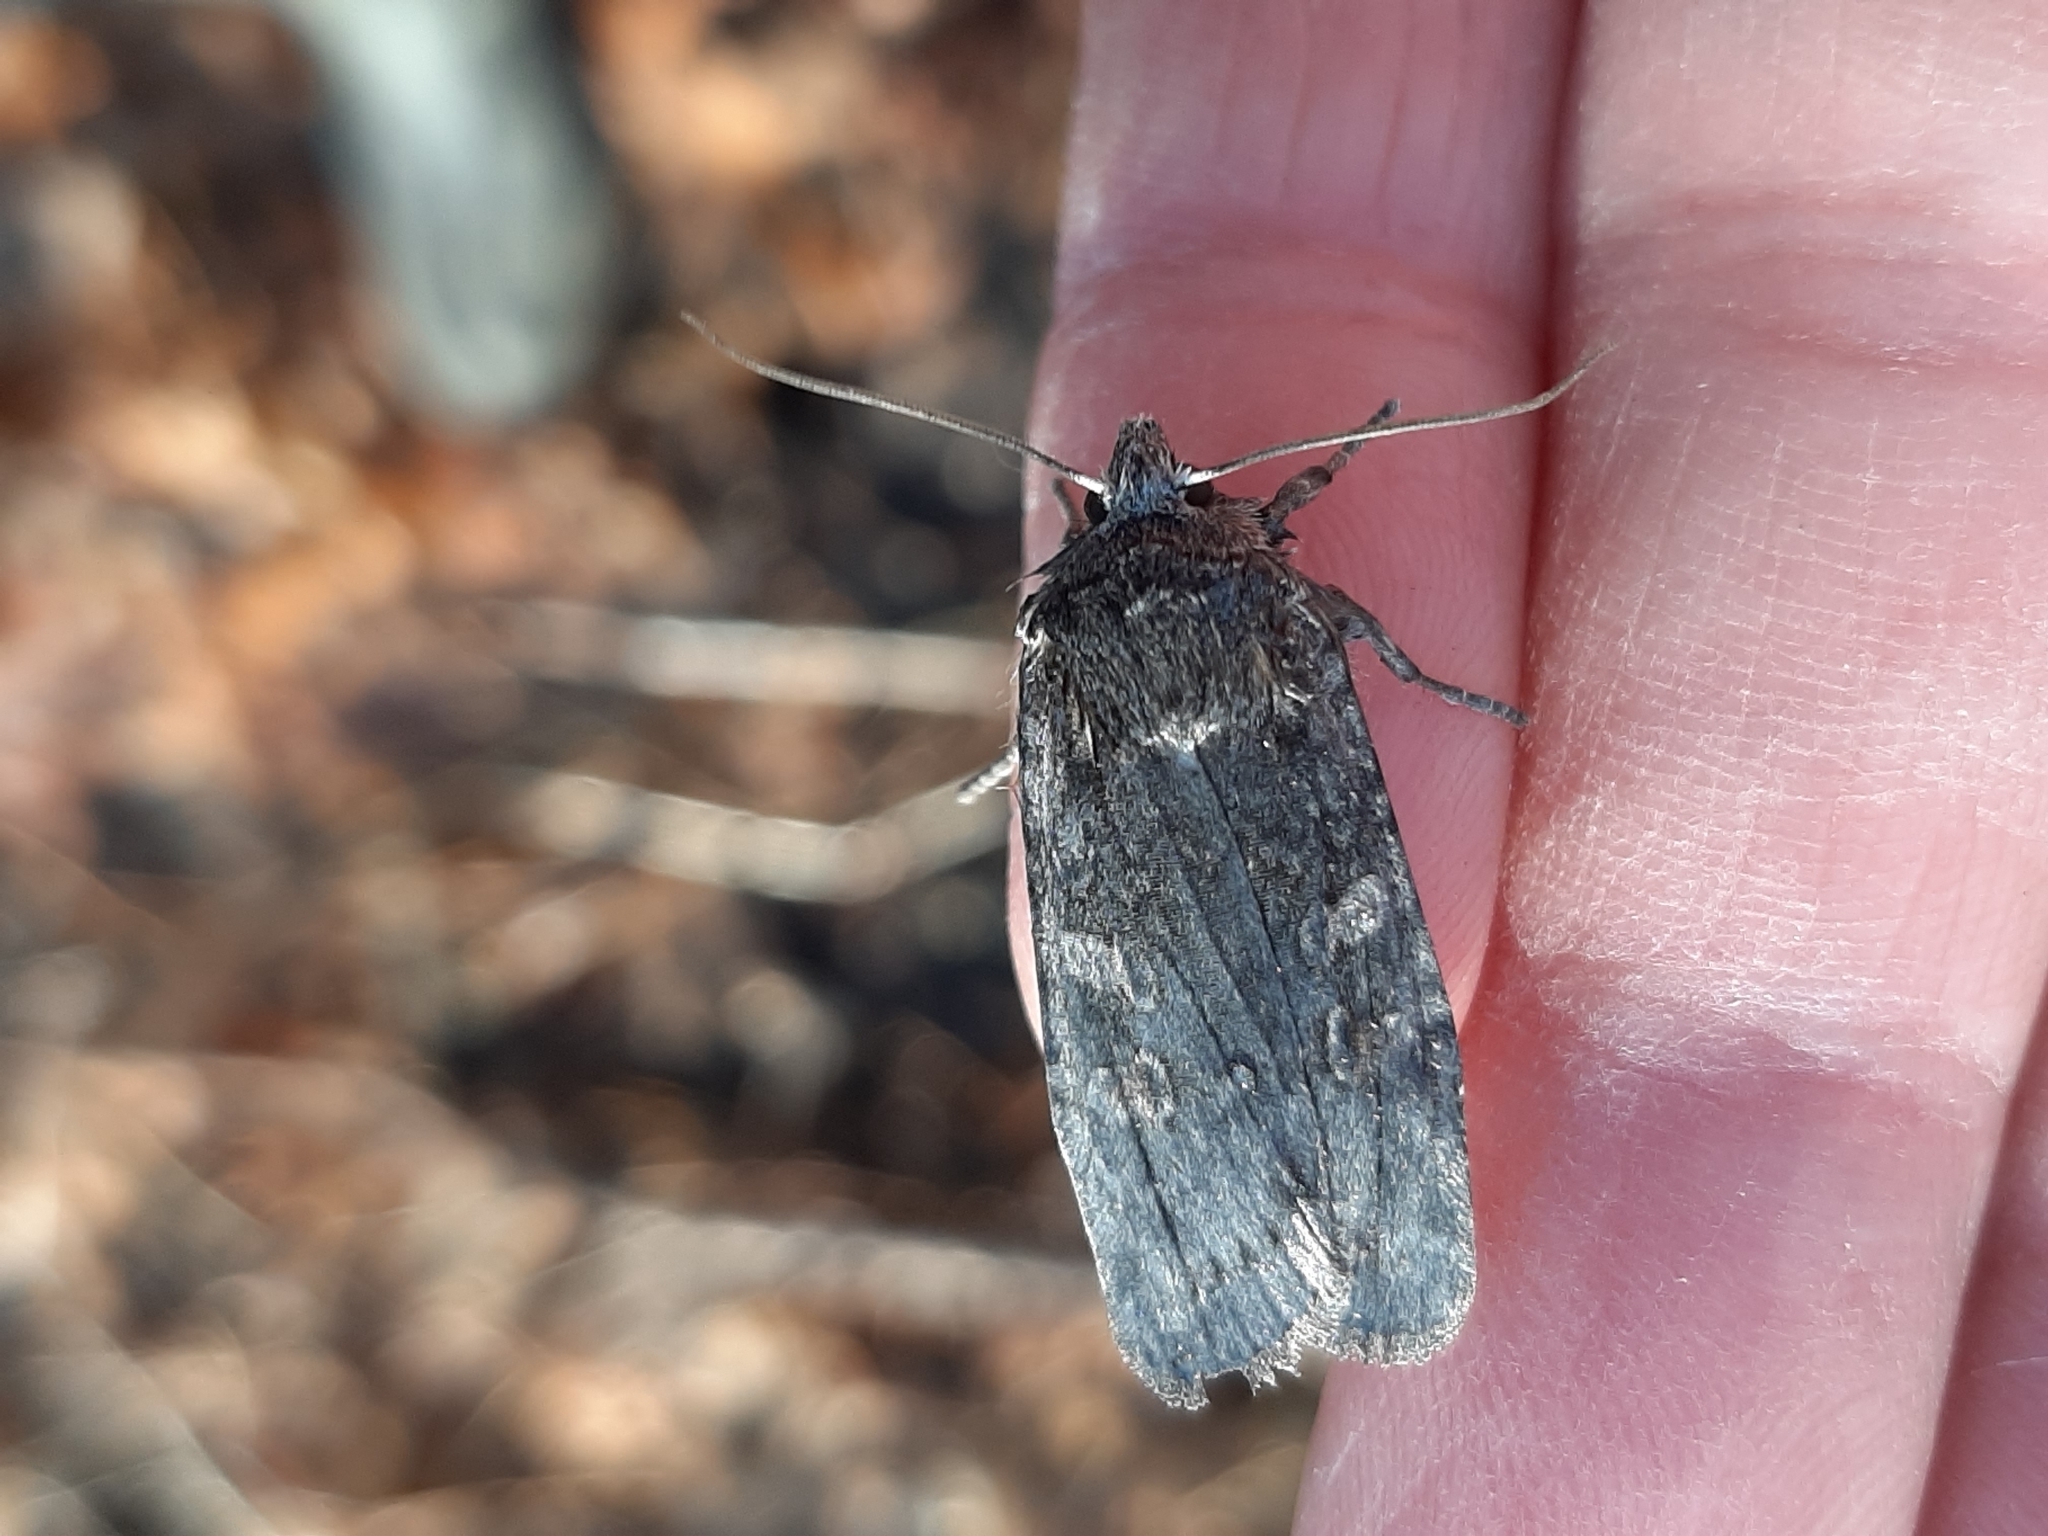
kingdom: Animalia
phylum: Arthropoda
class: Insecta
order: Lepidoptera
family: Noctuidae
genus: Lithophane
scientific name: Lithophane laticinerea
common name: Broad ashen pinion
